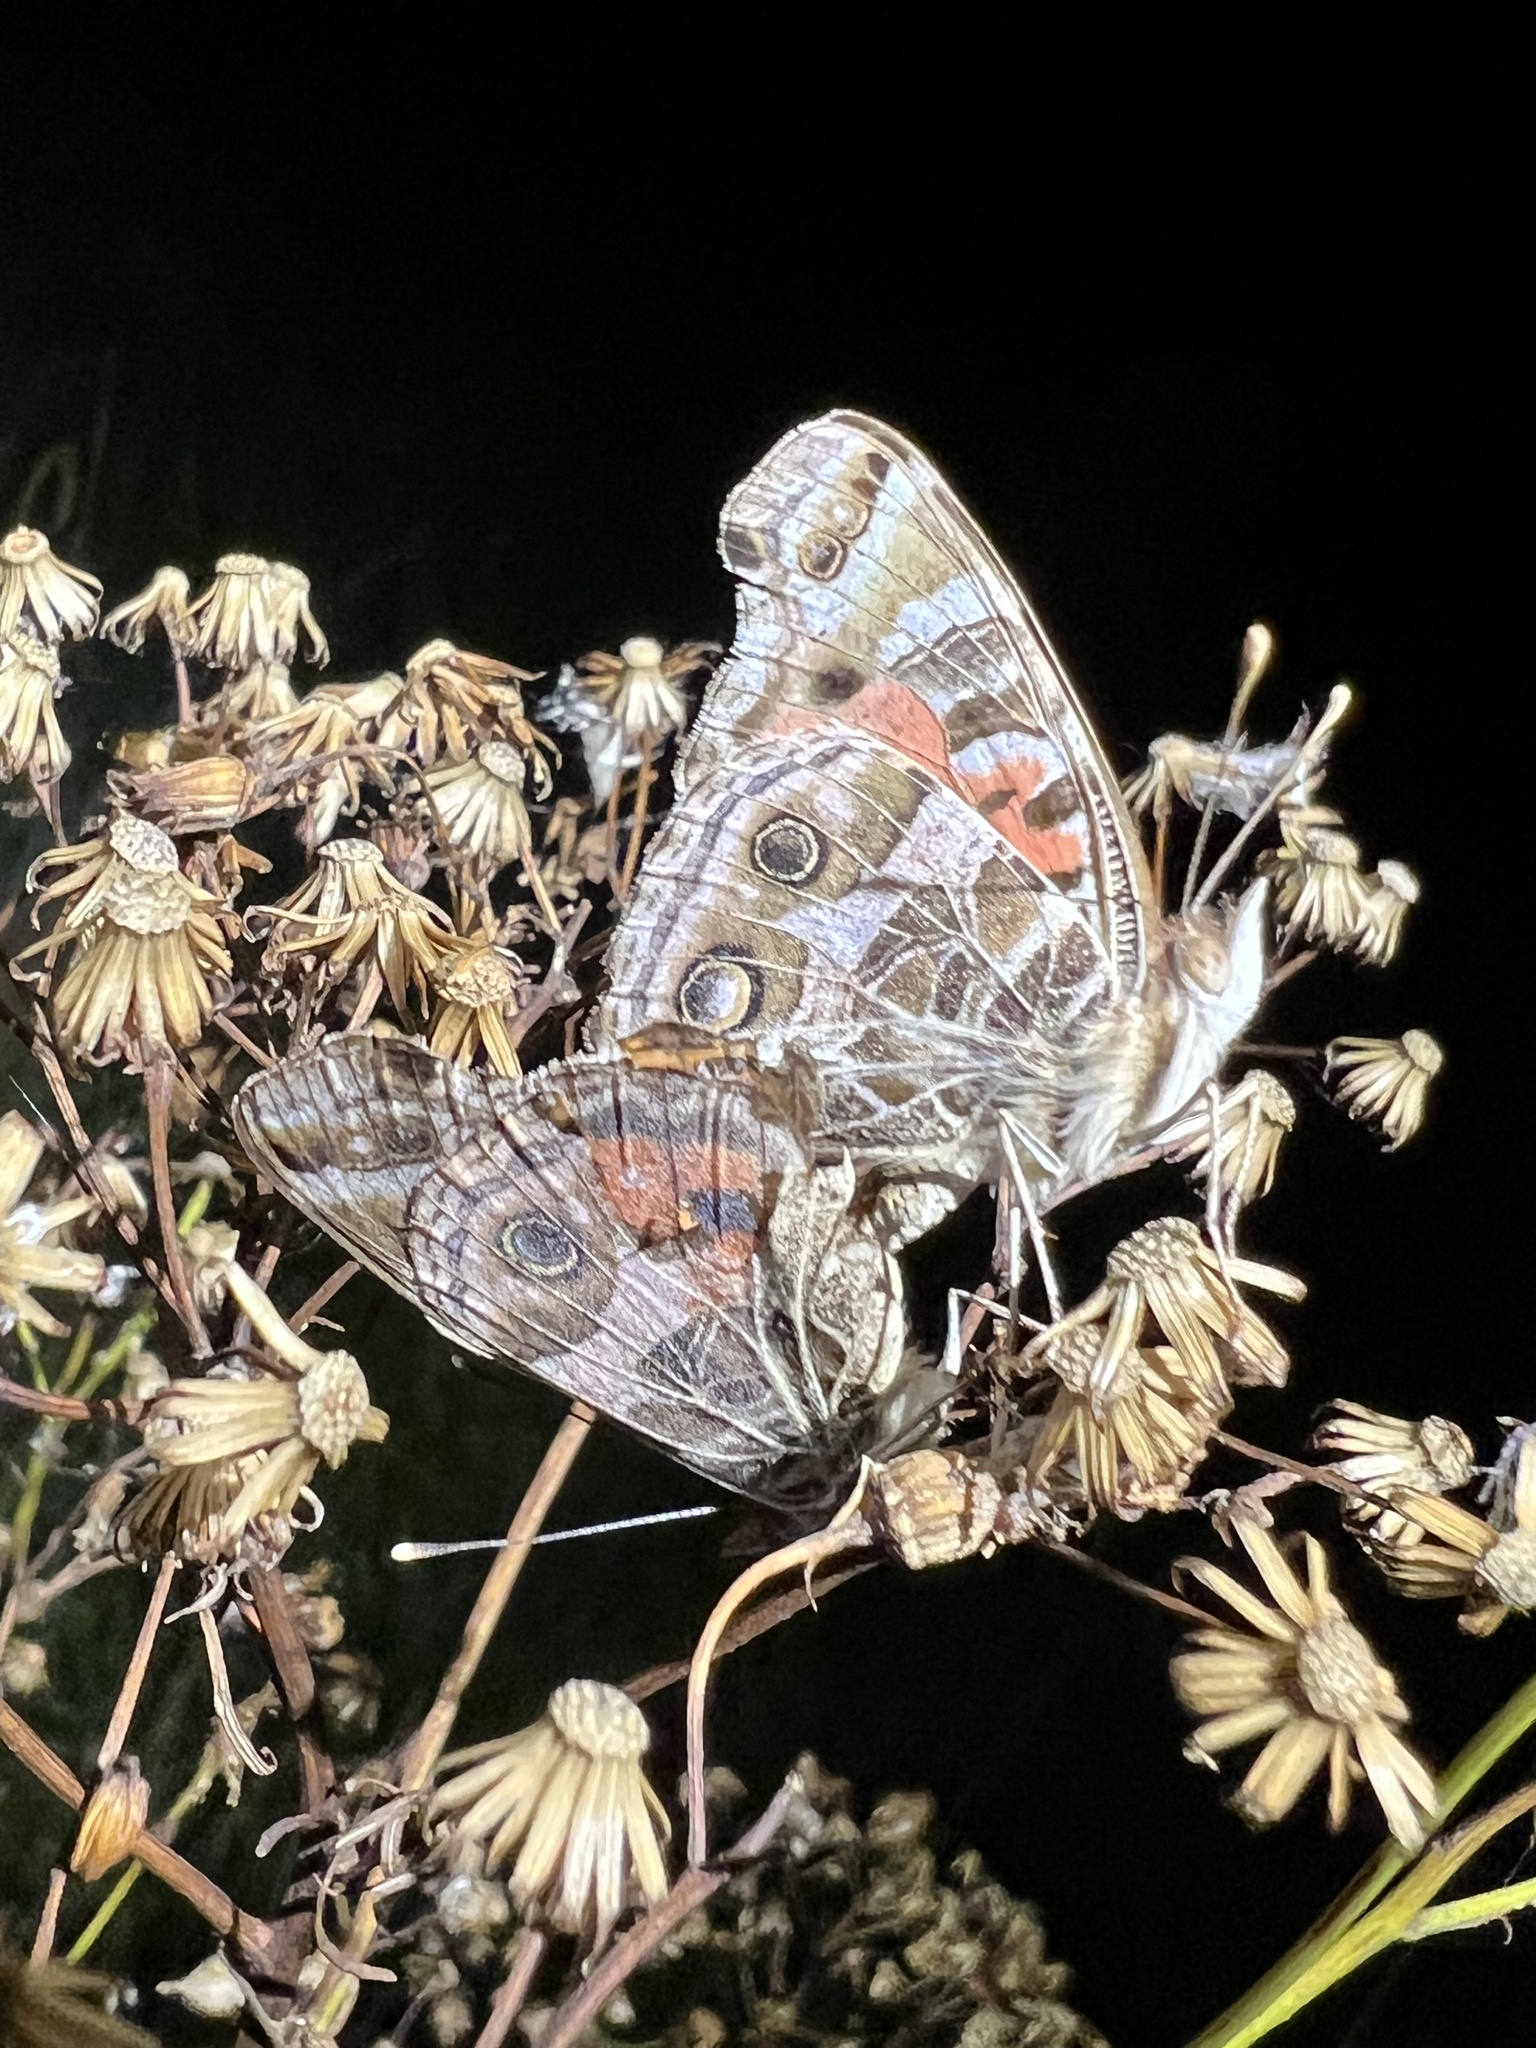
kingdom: Animalia
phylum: Arthropoda
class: Insecta
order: Lepidoptera
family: Nymphalidae
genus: Vanessa
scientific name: Vanessa braziliensis
